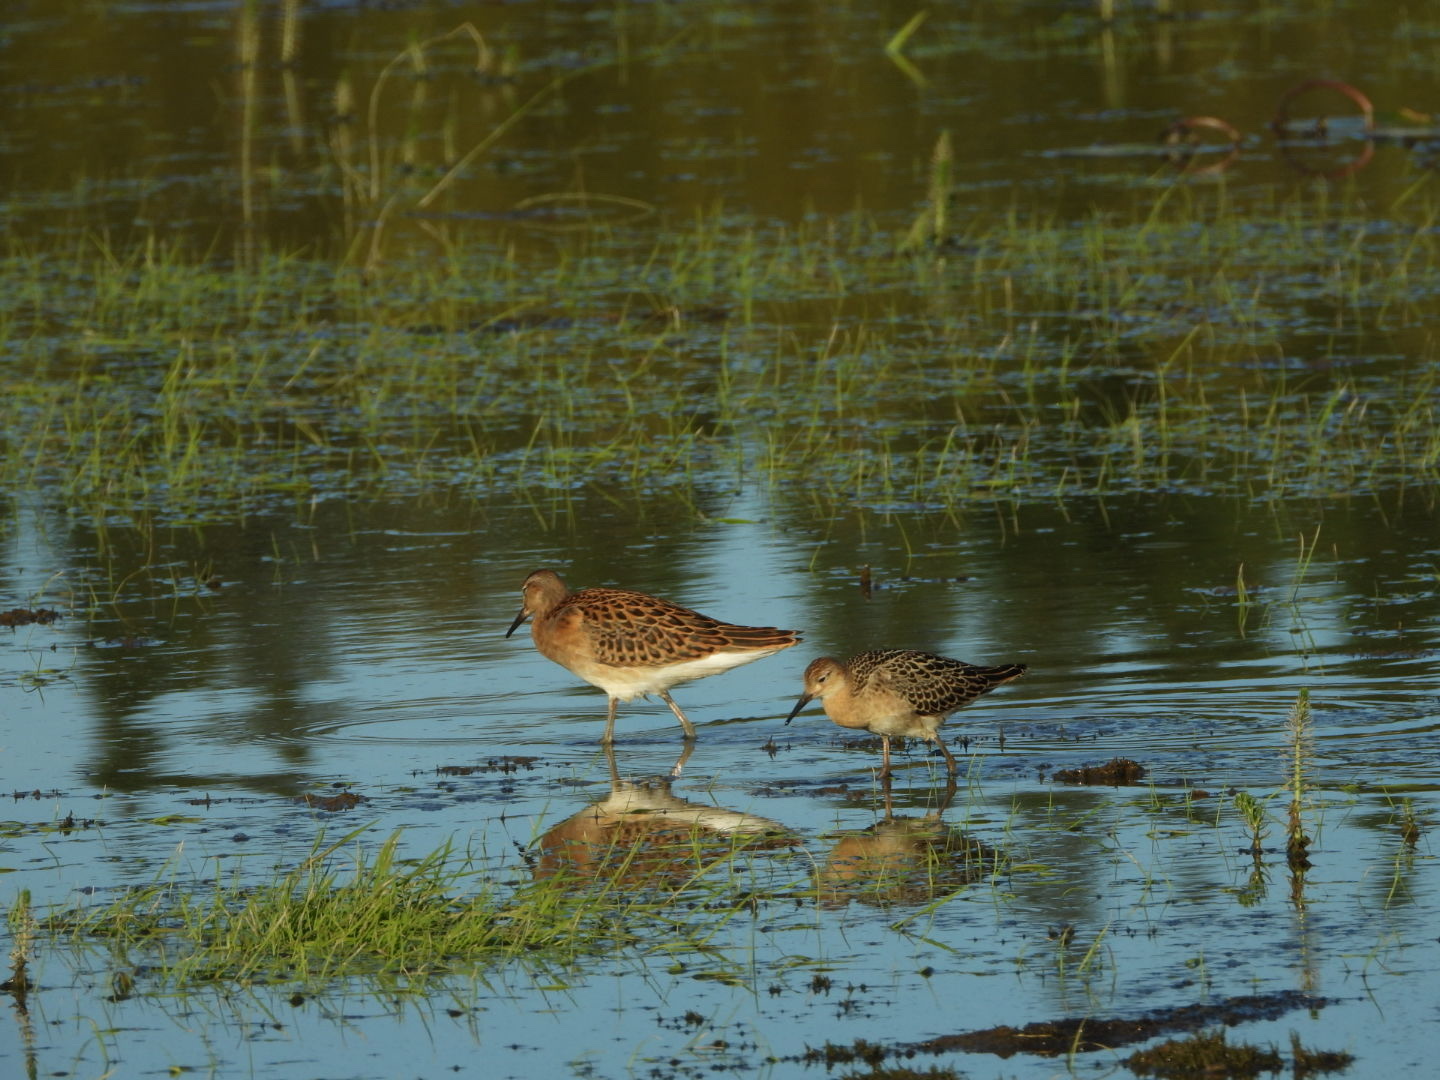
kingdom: Animalia
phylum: Chordata
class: Aves
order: Charadriiformes
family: Scolopacidae
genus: Calidris
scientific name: Calidris pugnax
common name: Ruff
